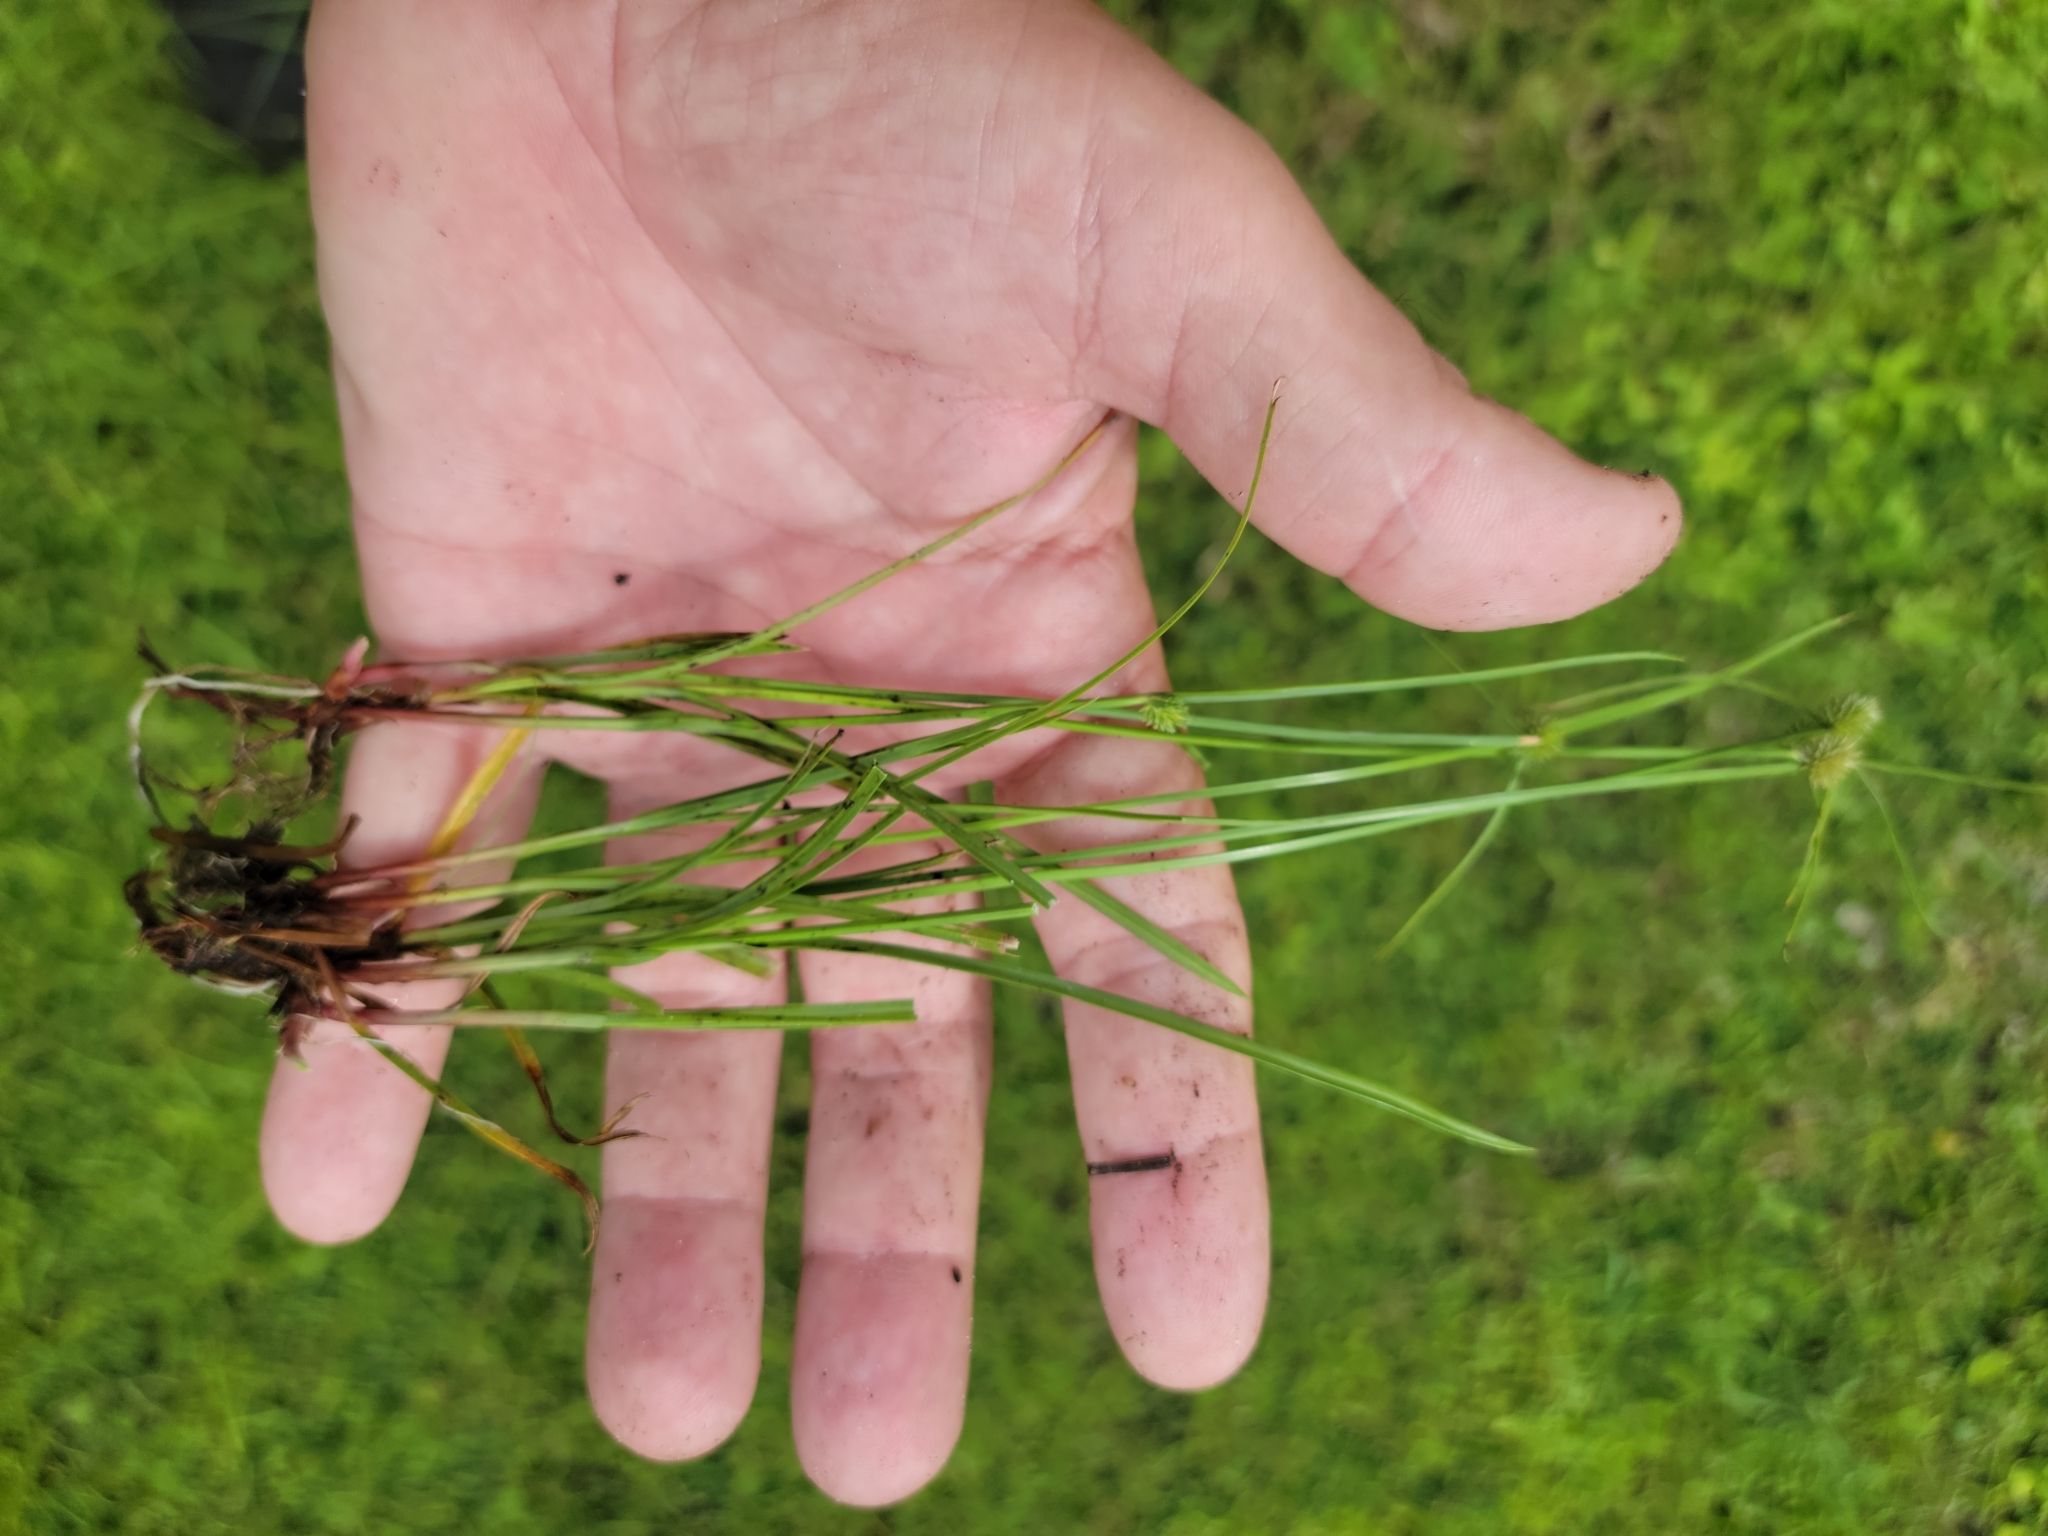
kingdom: Plantae
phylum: Tracheophyta
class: Liliopsida
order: Poales
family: Cyperaceae
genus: Cyperus
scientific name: Cyperus brevifolius
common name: Globe kyllinga
